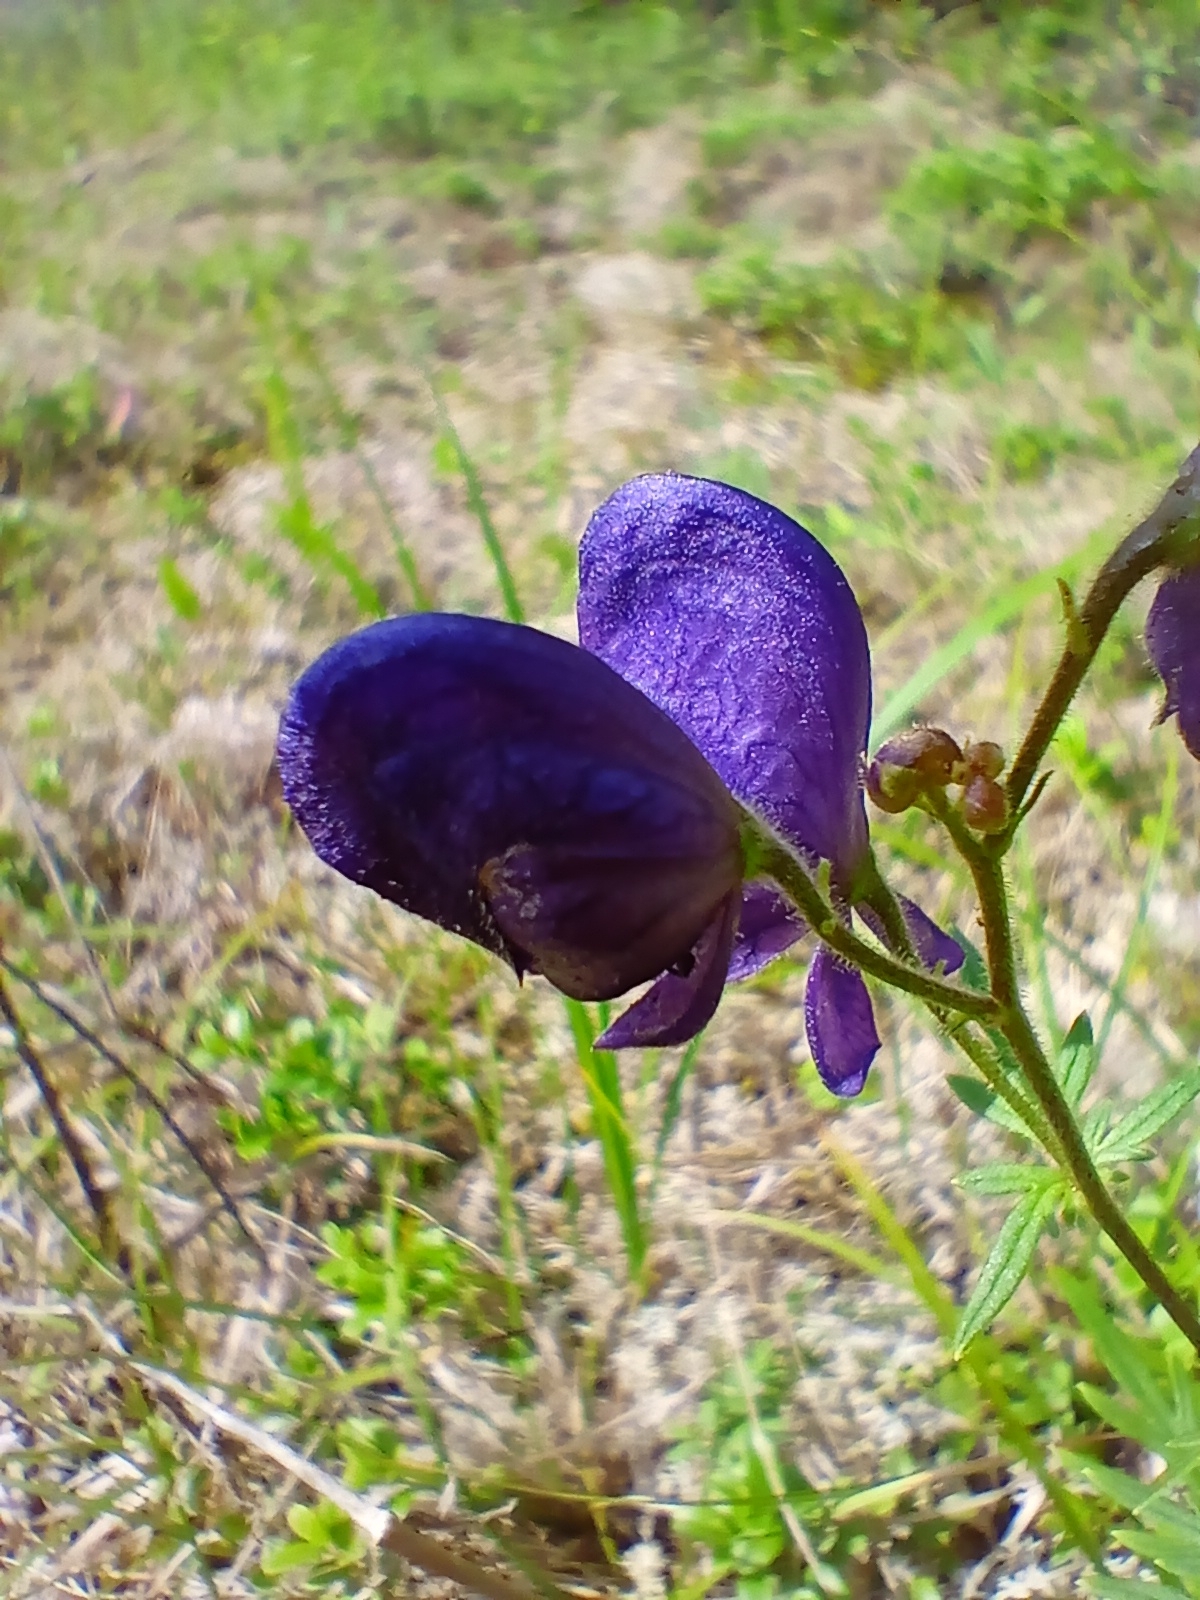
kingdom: Plantae
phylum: Tracheophyta
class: Magnoliopsida
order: Ranunculales
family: Ranunculaceae
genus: Aconitum
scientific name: Aconitum baicalense
